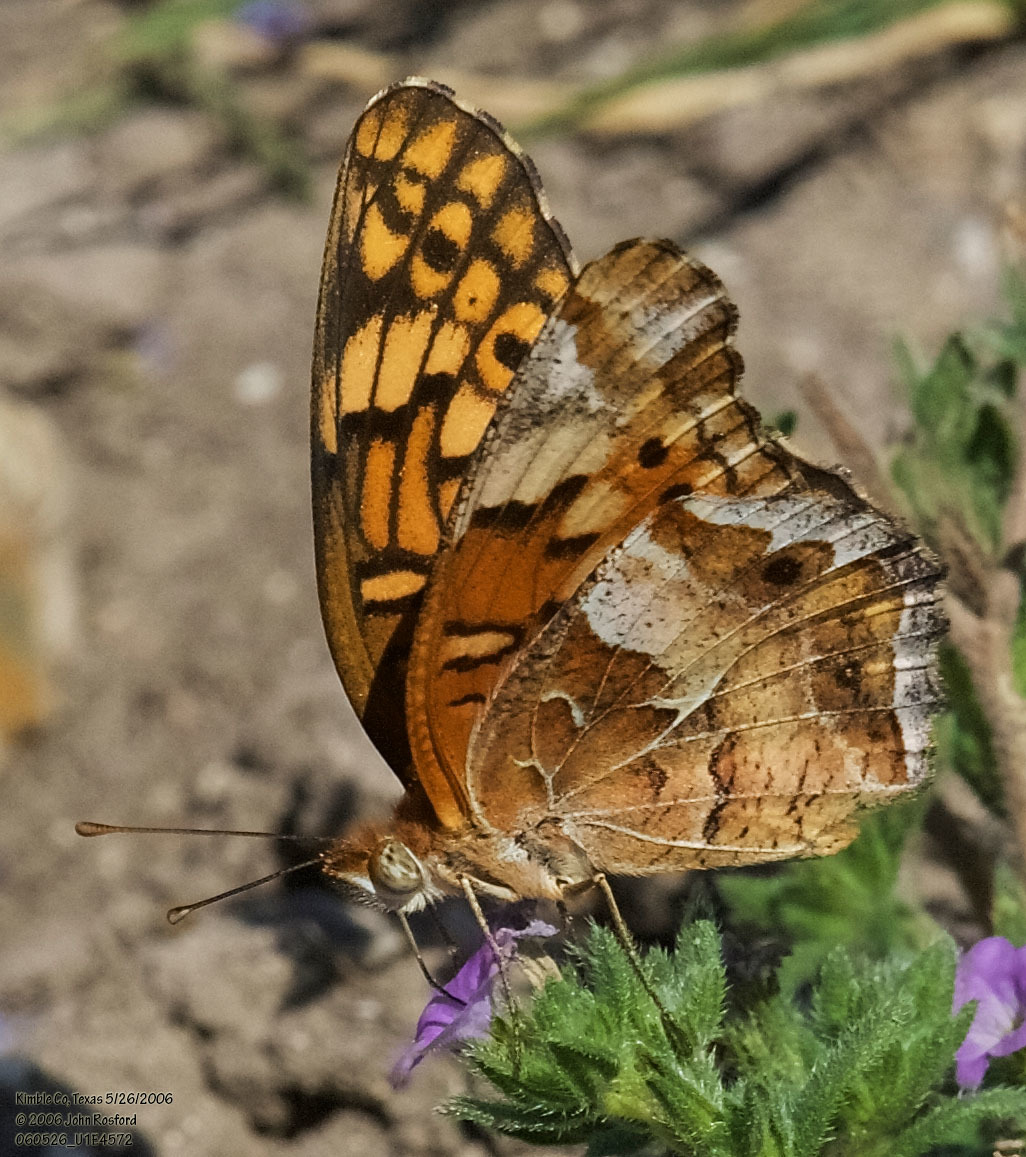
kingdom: Animalia
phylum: Arthropoda
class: Insecta
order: Lepidoptera
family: Nymphalidae
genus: Euptoieta
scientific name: Euptoieta claudia
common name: Variegated fritillary
